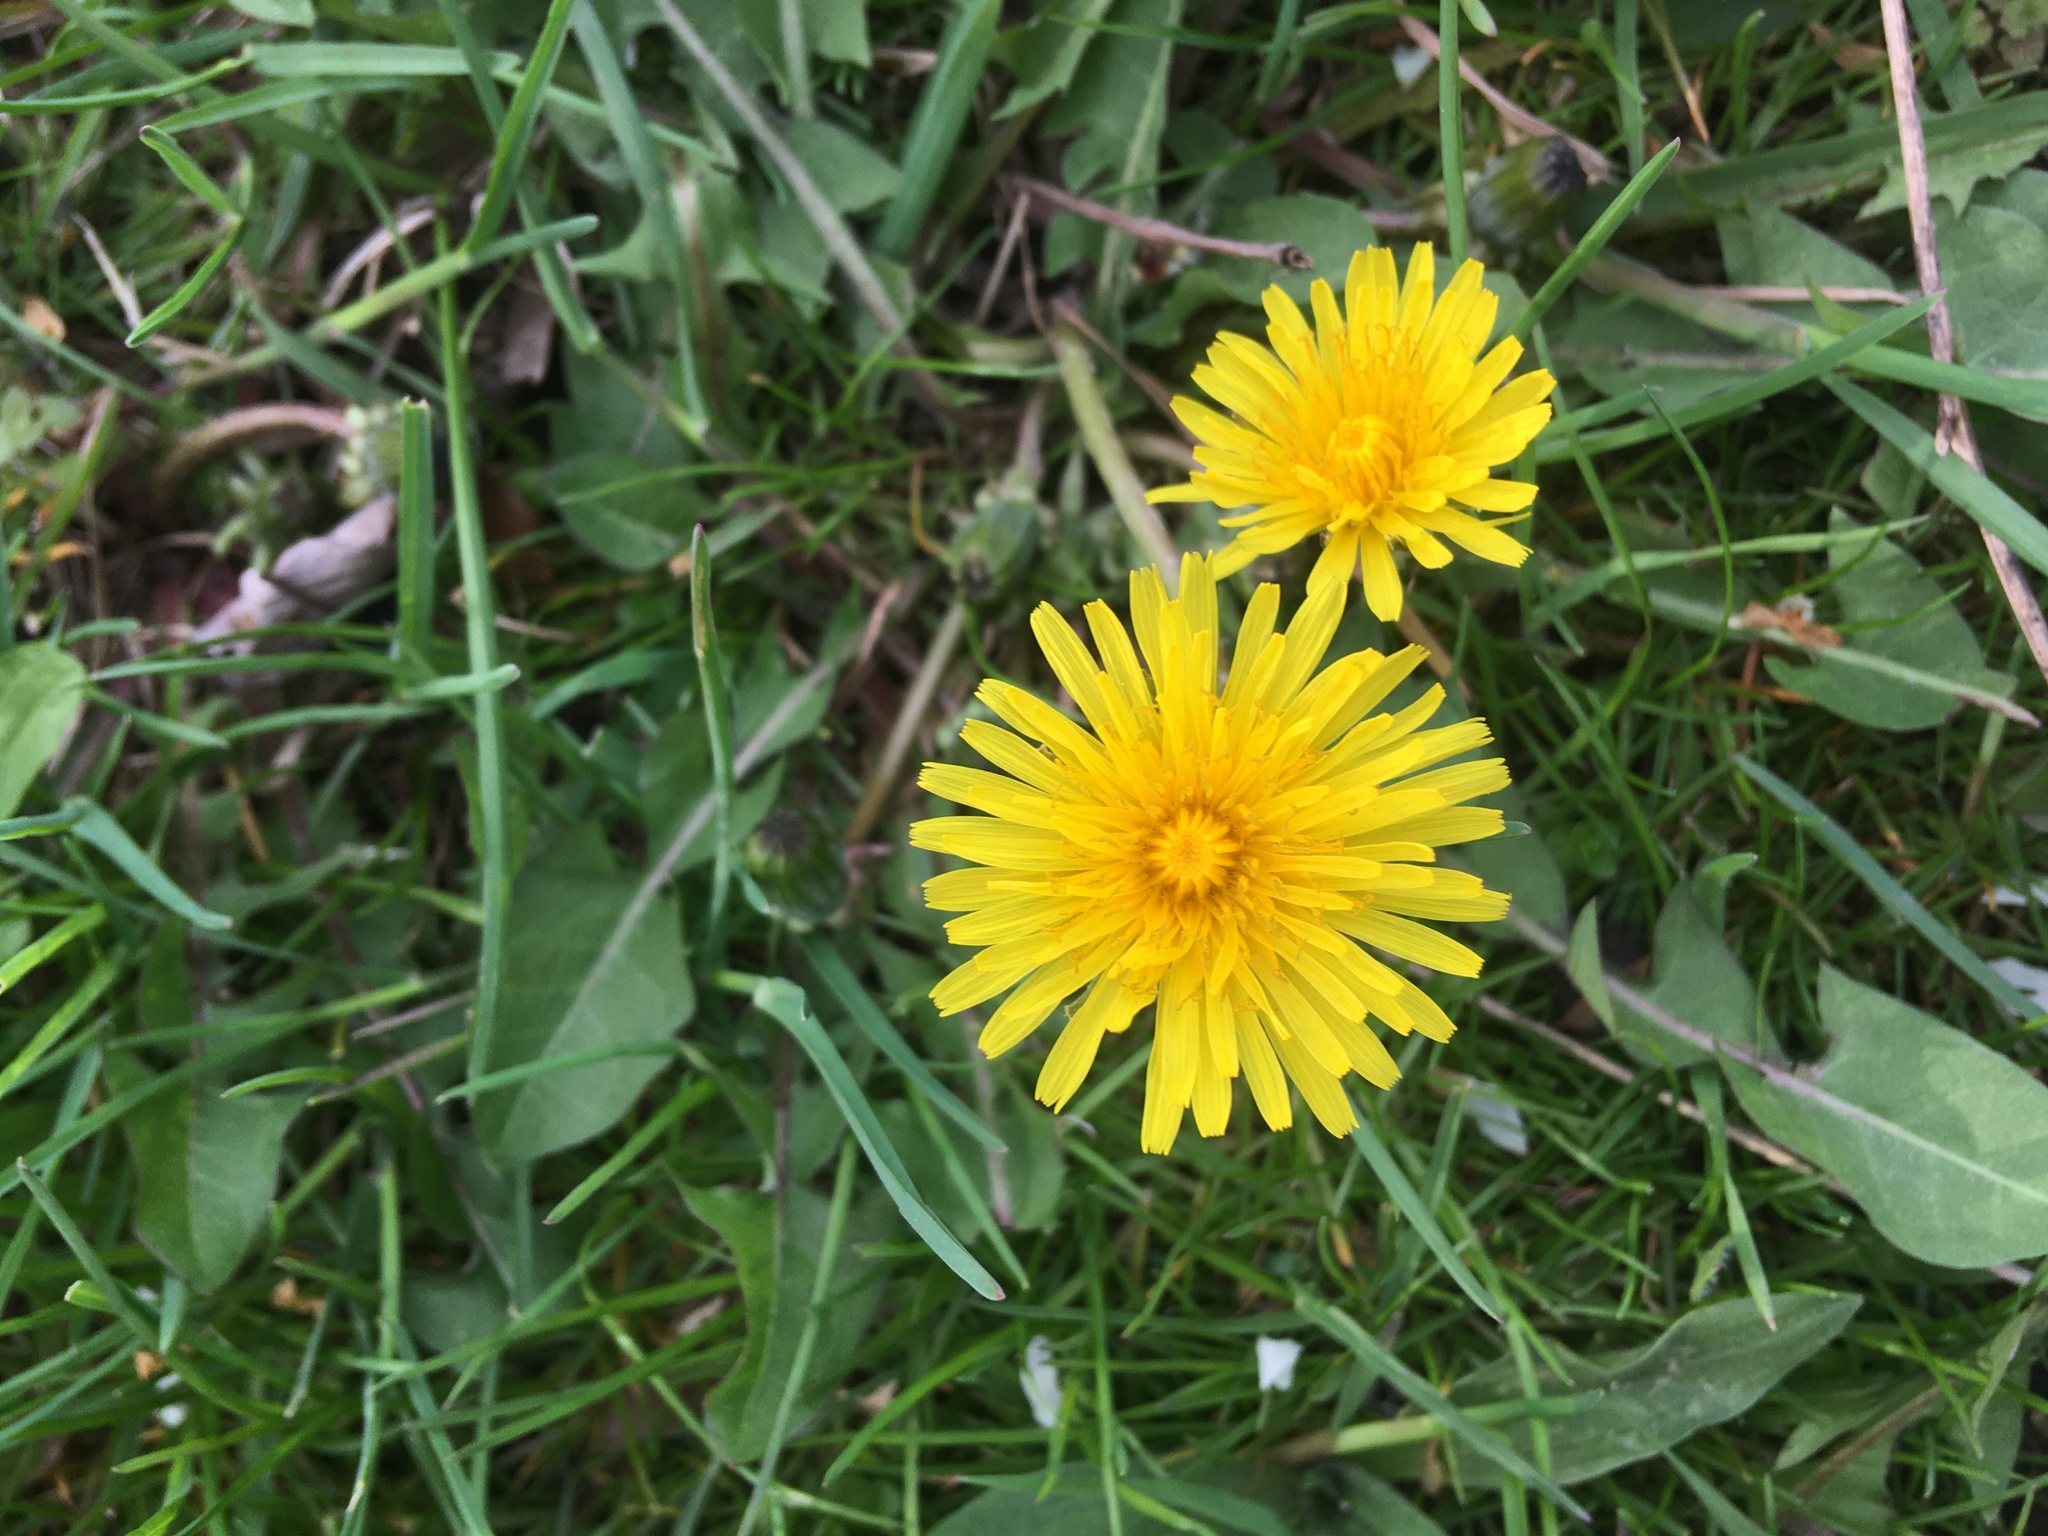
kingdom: Plantae
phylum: Tracheophyta
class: Magnoliopsida
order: Asterales
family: Asteraceae
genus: Taraxacum
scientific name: Taraxacum officinale
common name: Common dandelion
